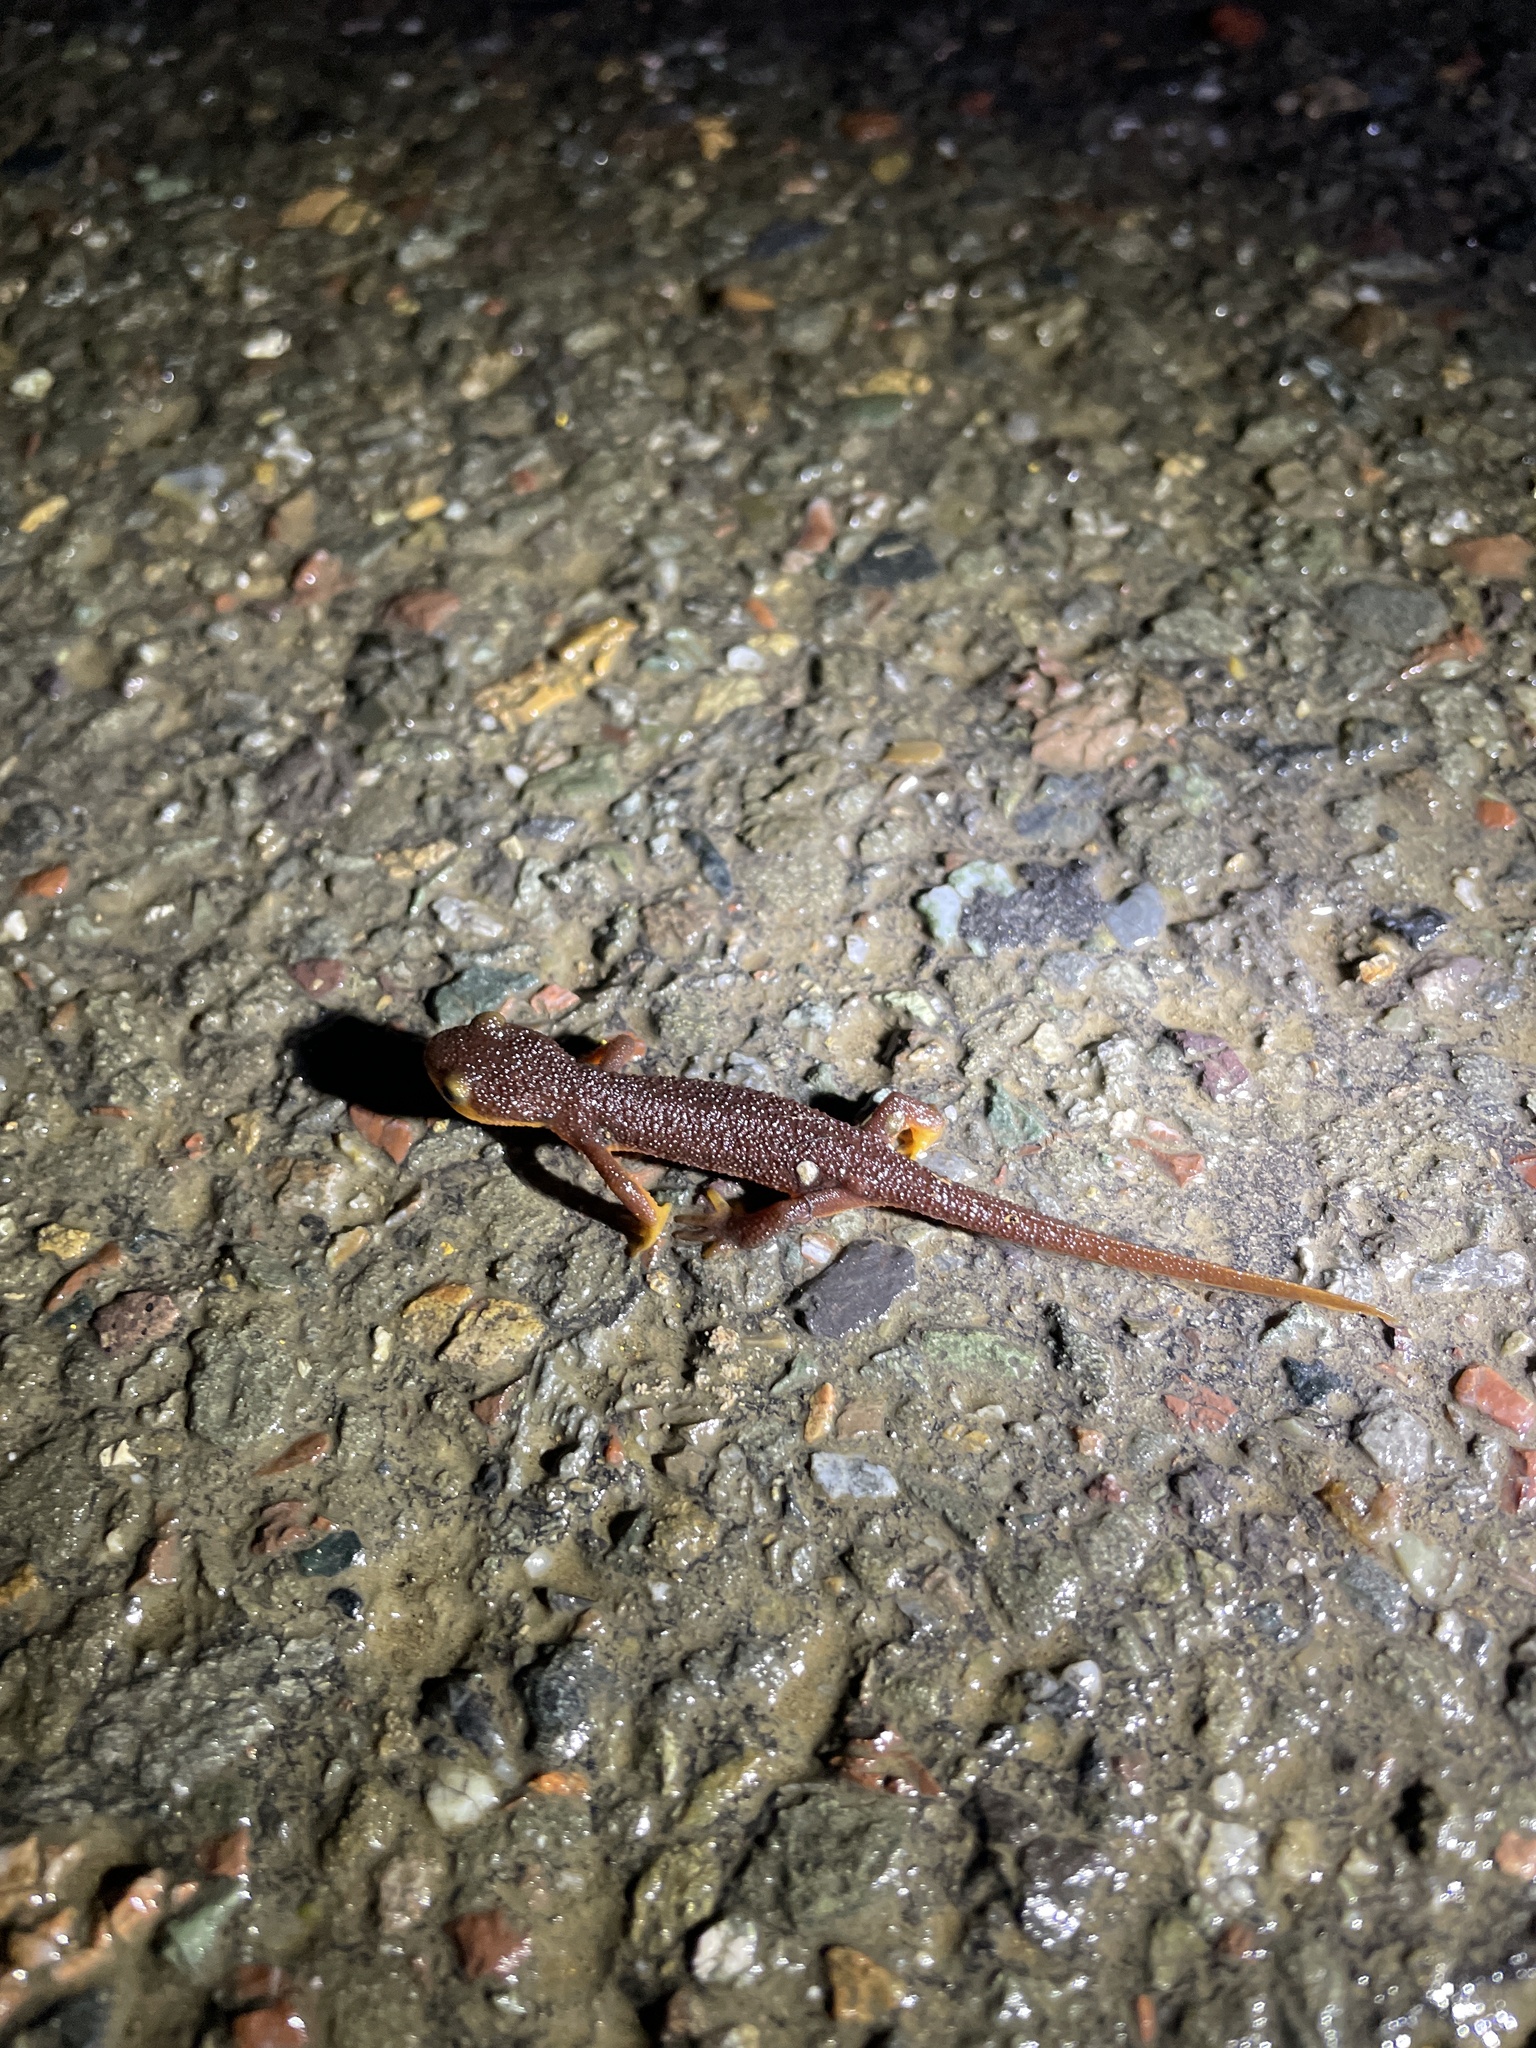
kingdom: Animalia
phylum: Chordata
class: Amphibia
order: Caudata
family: Salamandridae
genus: Taricha
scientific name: Taricha torosa
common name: California newt
